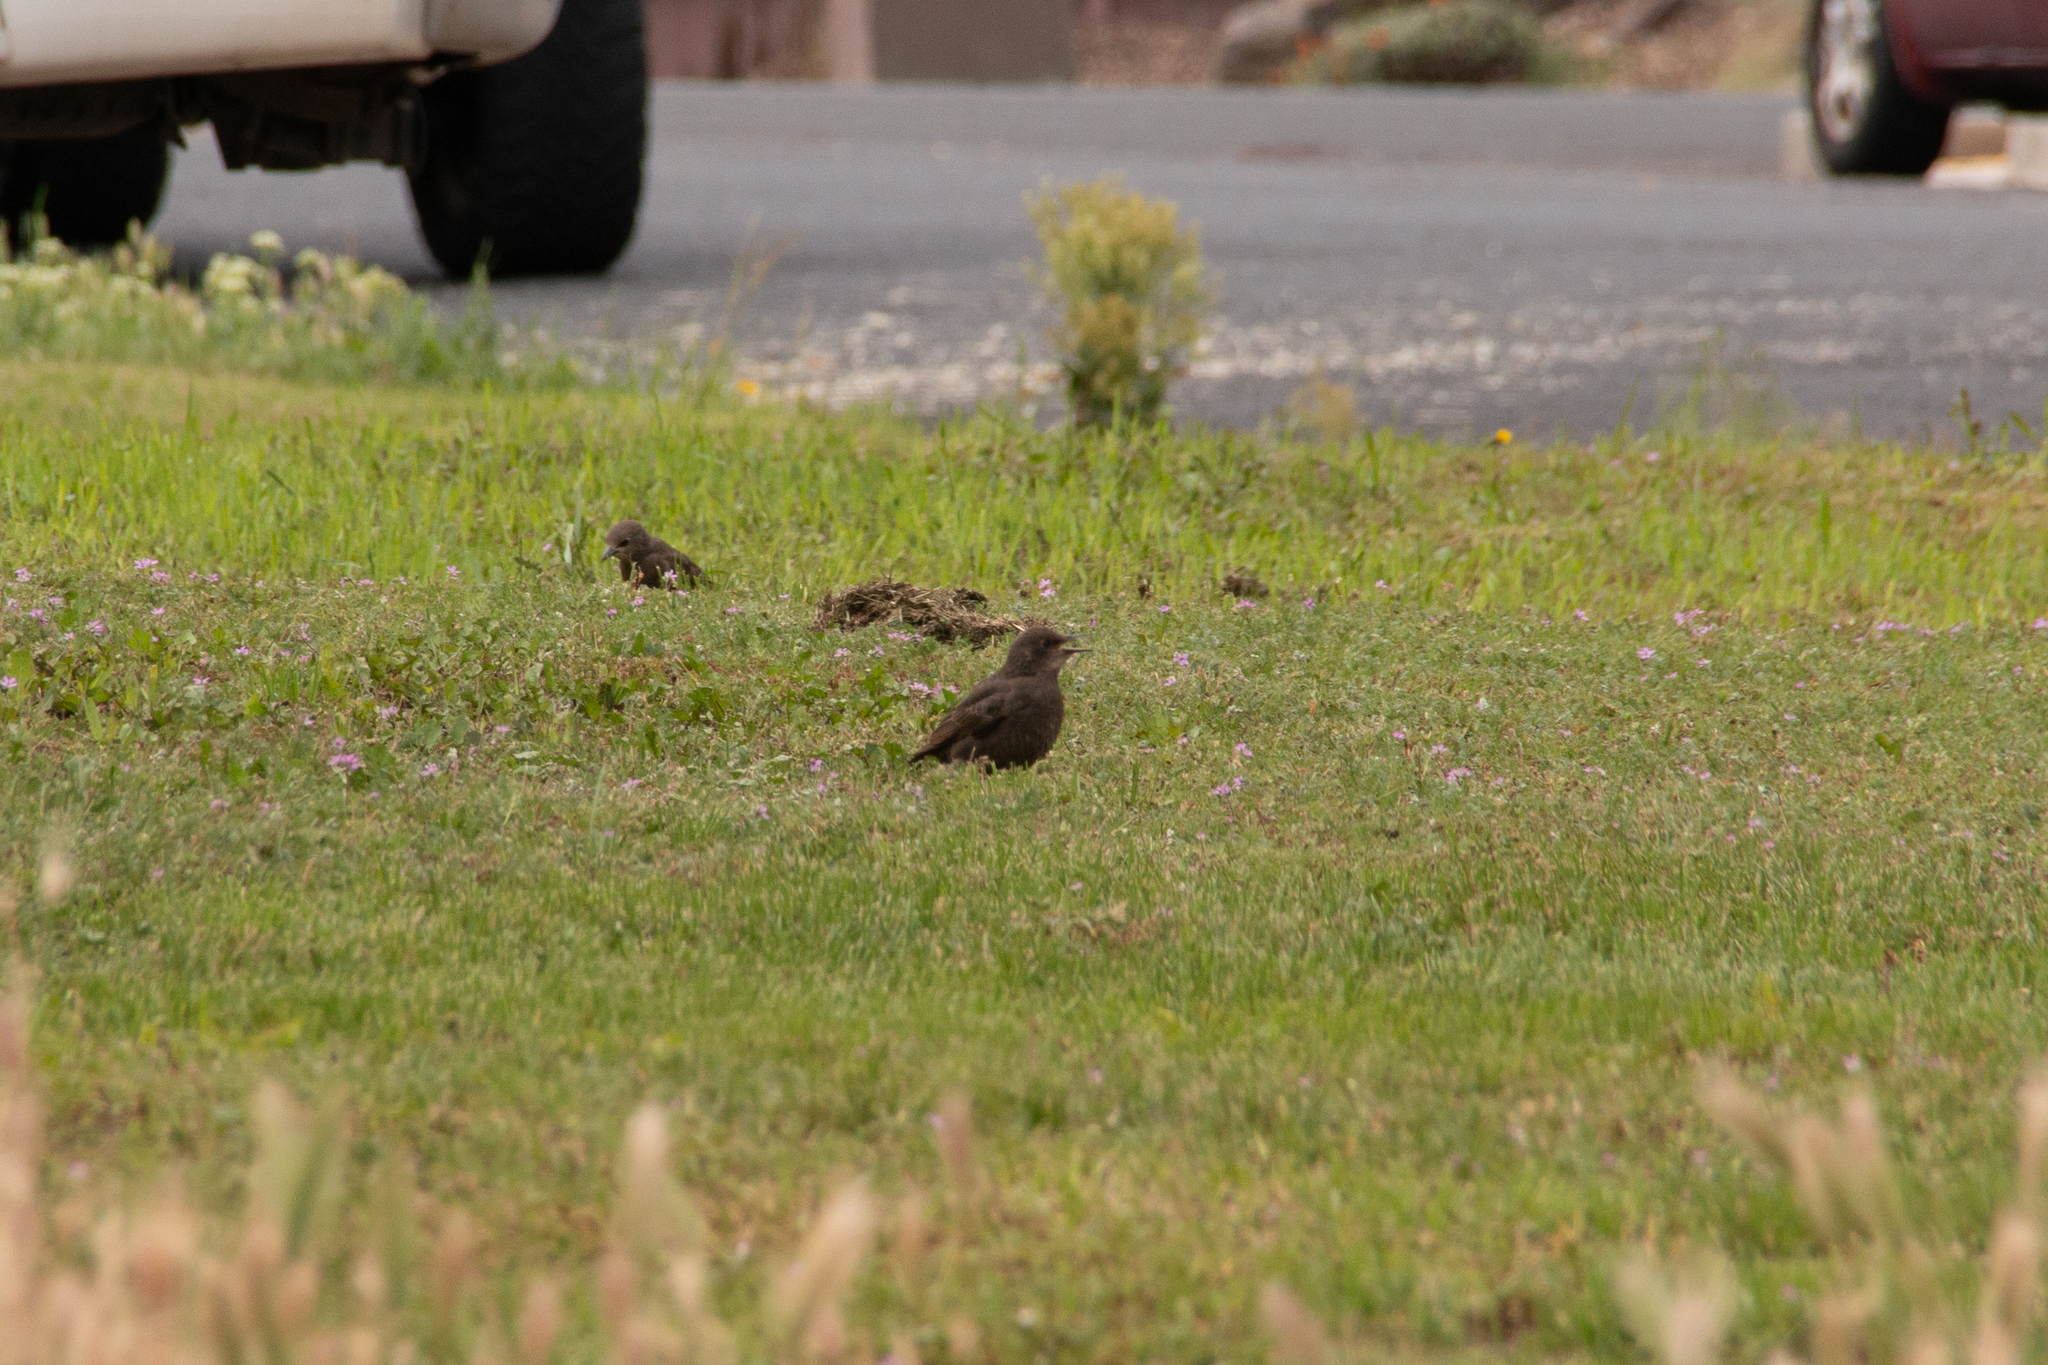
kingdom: Animalia
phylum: Chordata
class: Aves
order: Passeriformes
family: Sturnidae
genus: Sturnus
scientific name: Sturnus vulgaris
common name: Common starling
